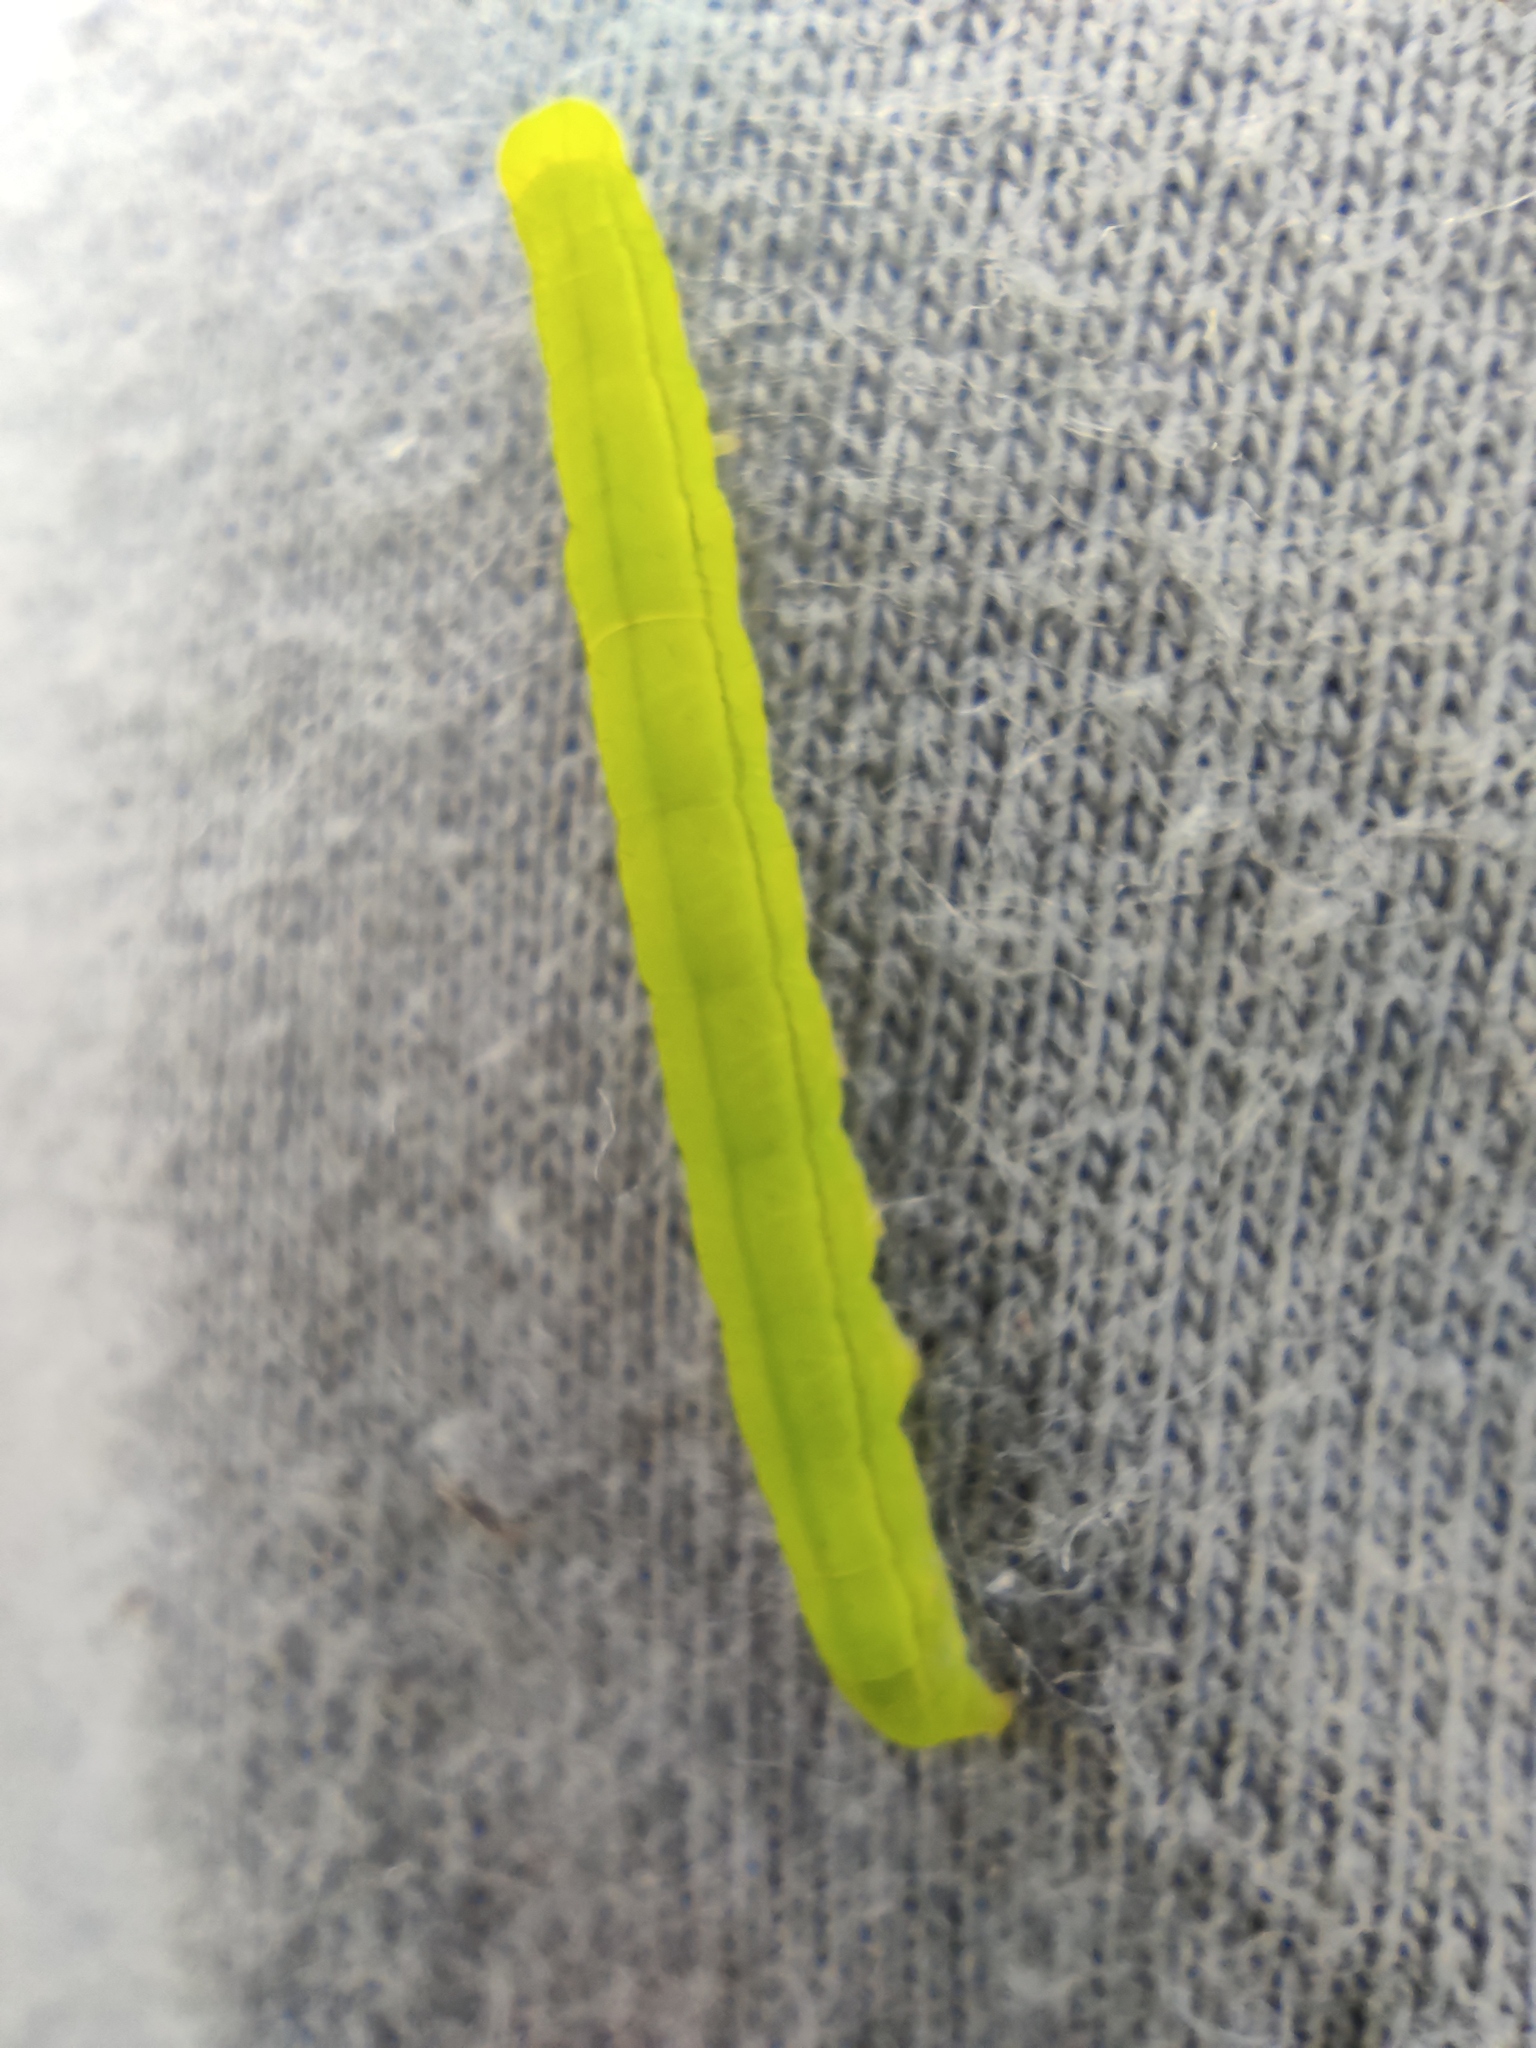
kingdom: Animalia
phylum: Arthropoda
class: Insecta
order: Lepidoptera
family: Erebidae
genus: Scoliopteryx
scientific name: Scoliopteryx libatrix
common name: Herald
